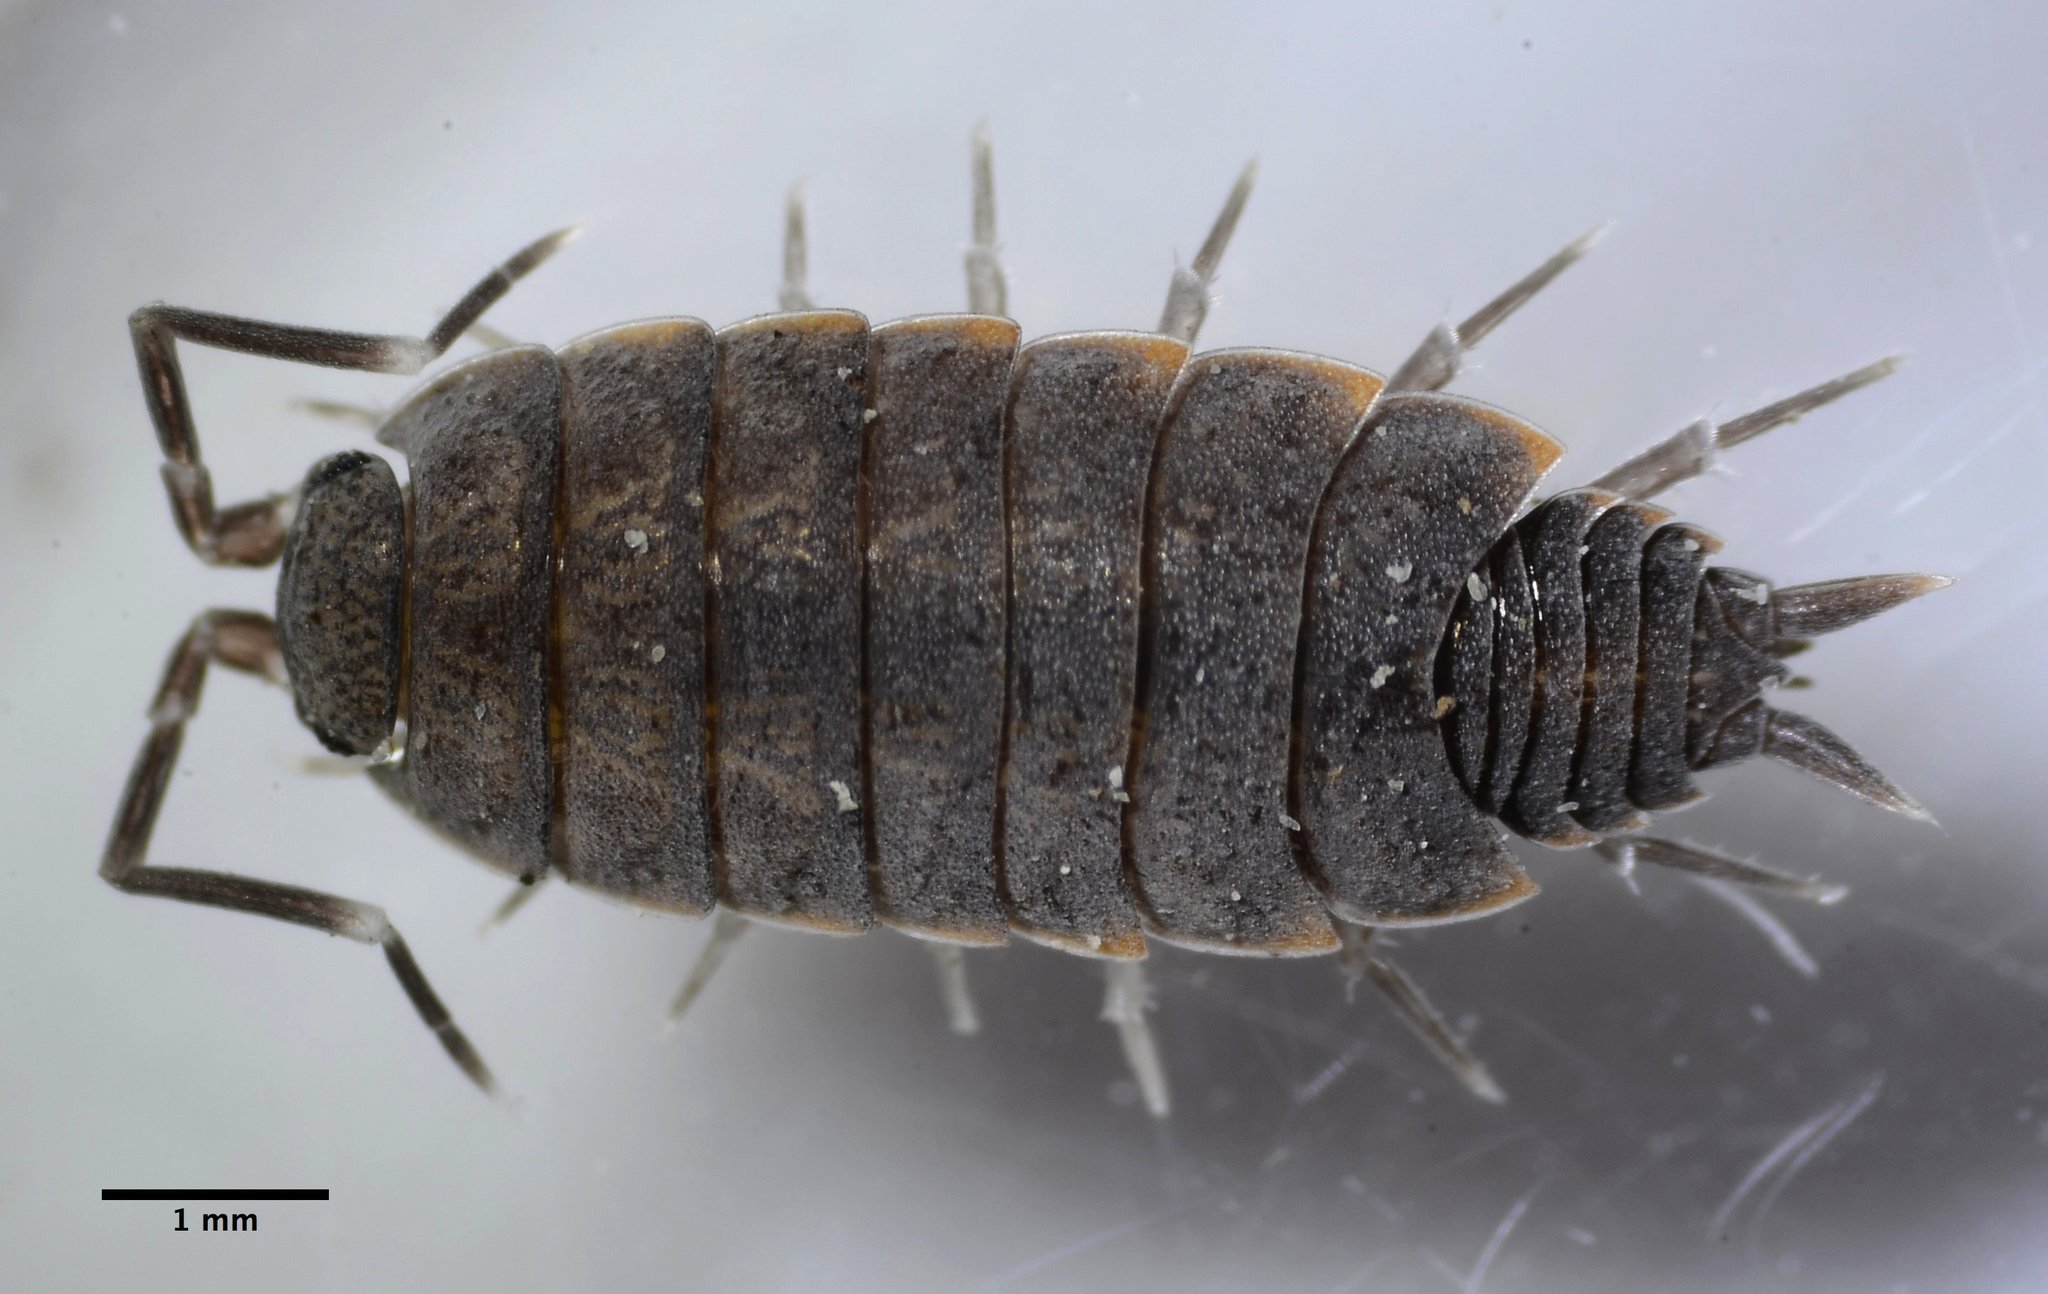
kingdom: Animalia
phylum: Arthropoda
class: Malacostraca
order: Isopoda
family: Porcellionidae
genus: Porcellionides
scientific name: Porcellionides floria
